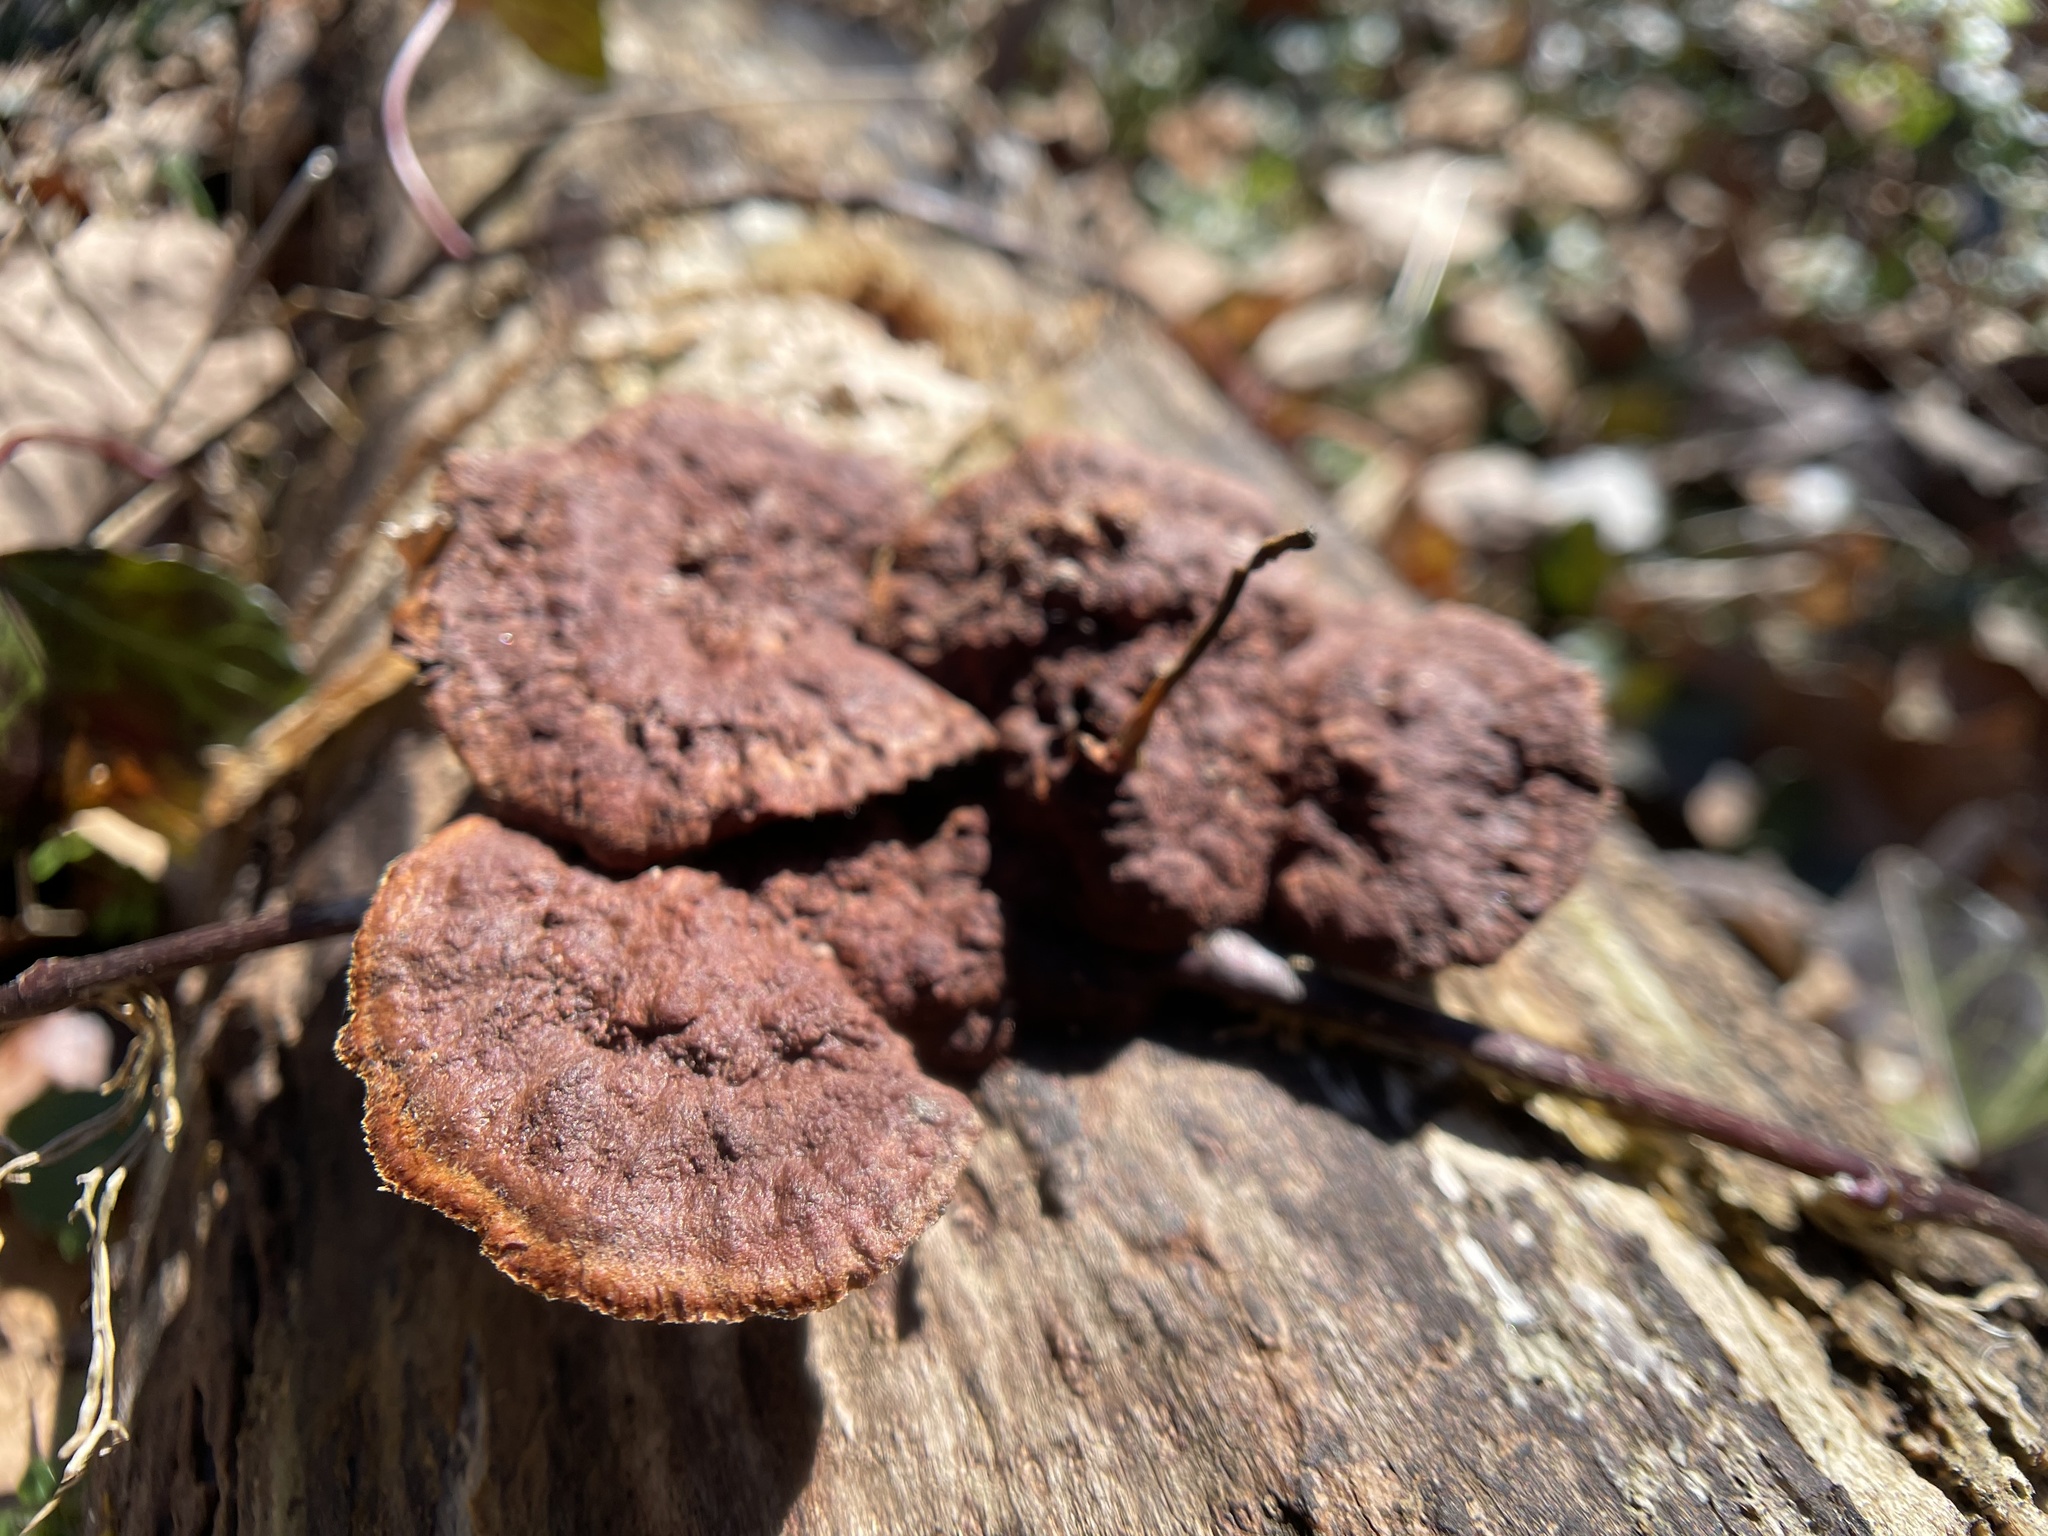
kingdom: Fungi
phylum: Basidiomycota
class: Agaricomycetes
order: Hymenochaetales
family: Hymenochaetaceae
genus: Phellinus
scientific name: Phellinus gilvus
